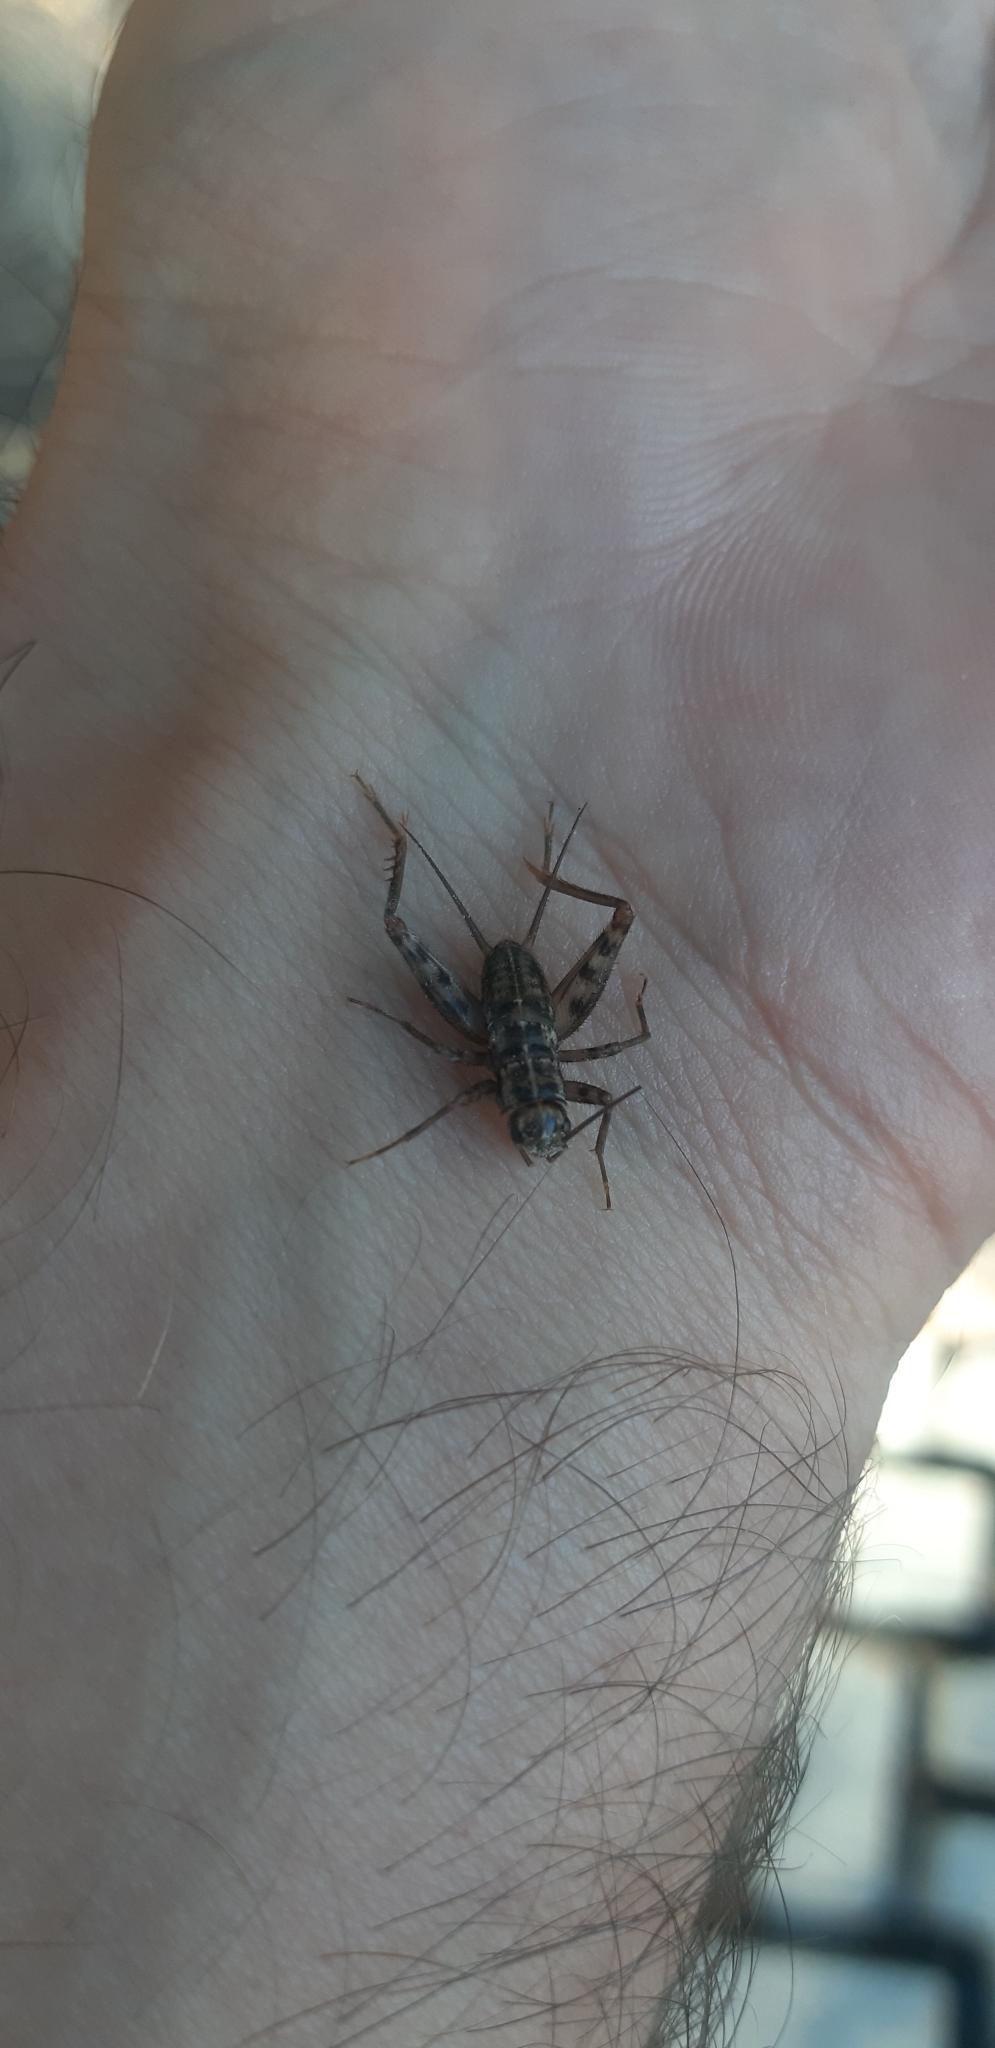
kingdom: Animalia
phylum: Arthropoda
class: Insecta
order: Orthoptera
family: Gryllidae
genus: Gryllomorpha
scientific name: Gryllomorpha dalmatina
